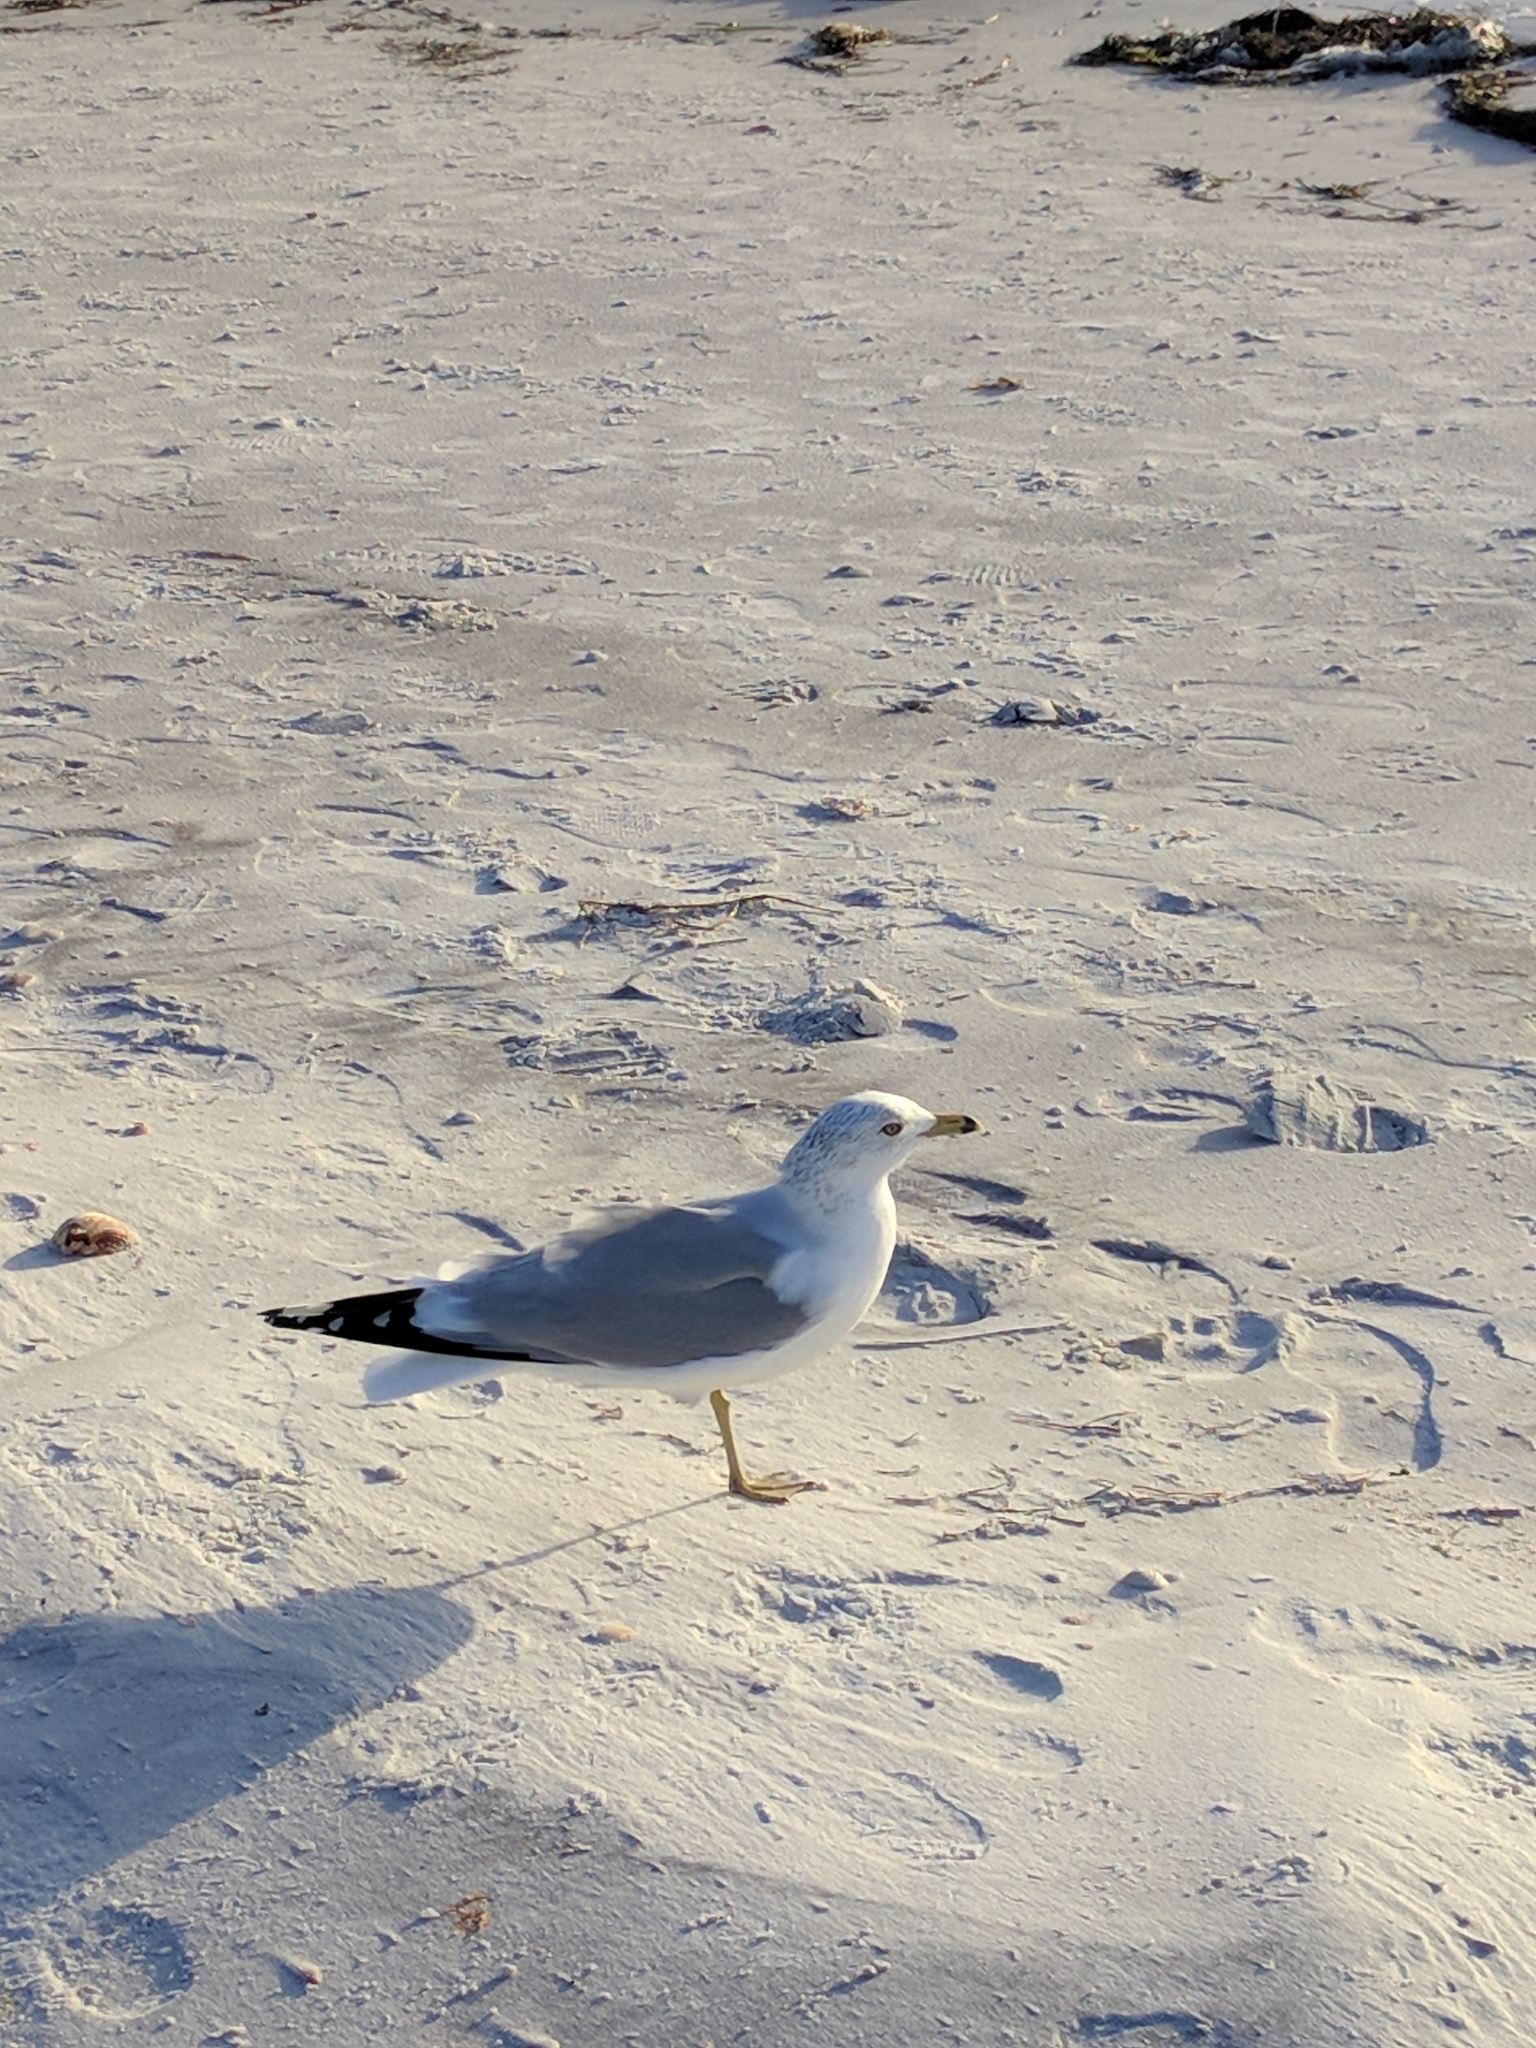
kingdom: Animalia
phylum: Chordata
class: Aves
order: Charadriiformes
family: Laridae
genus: Larus
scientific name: Larus delawarensis
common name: Ring-billed gull
